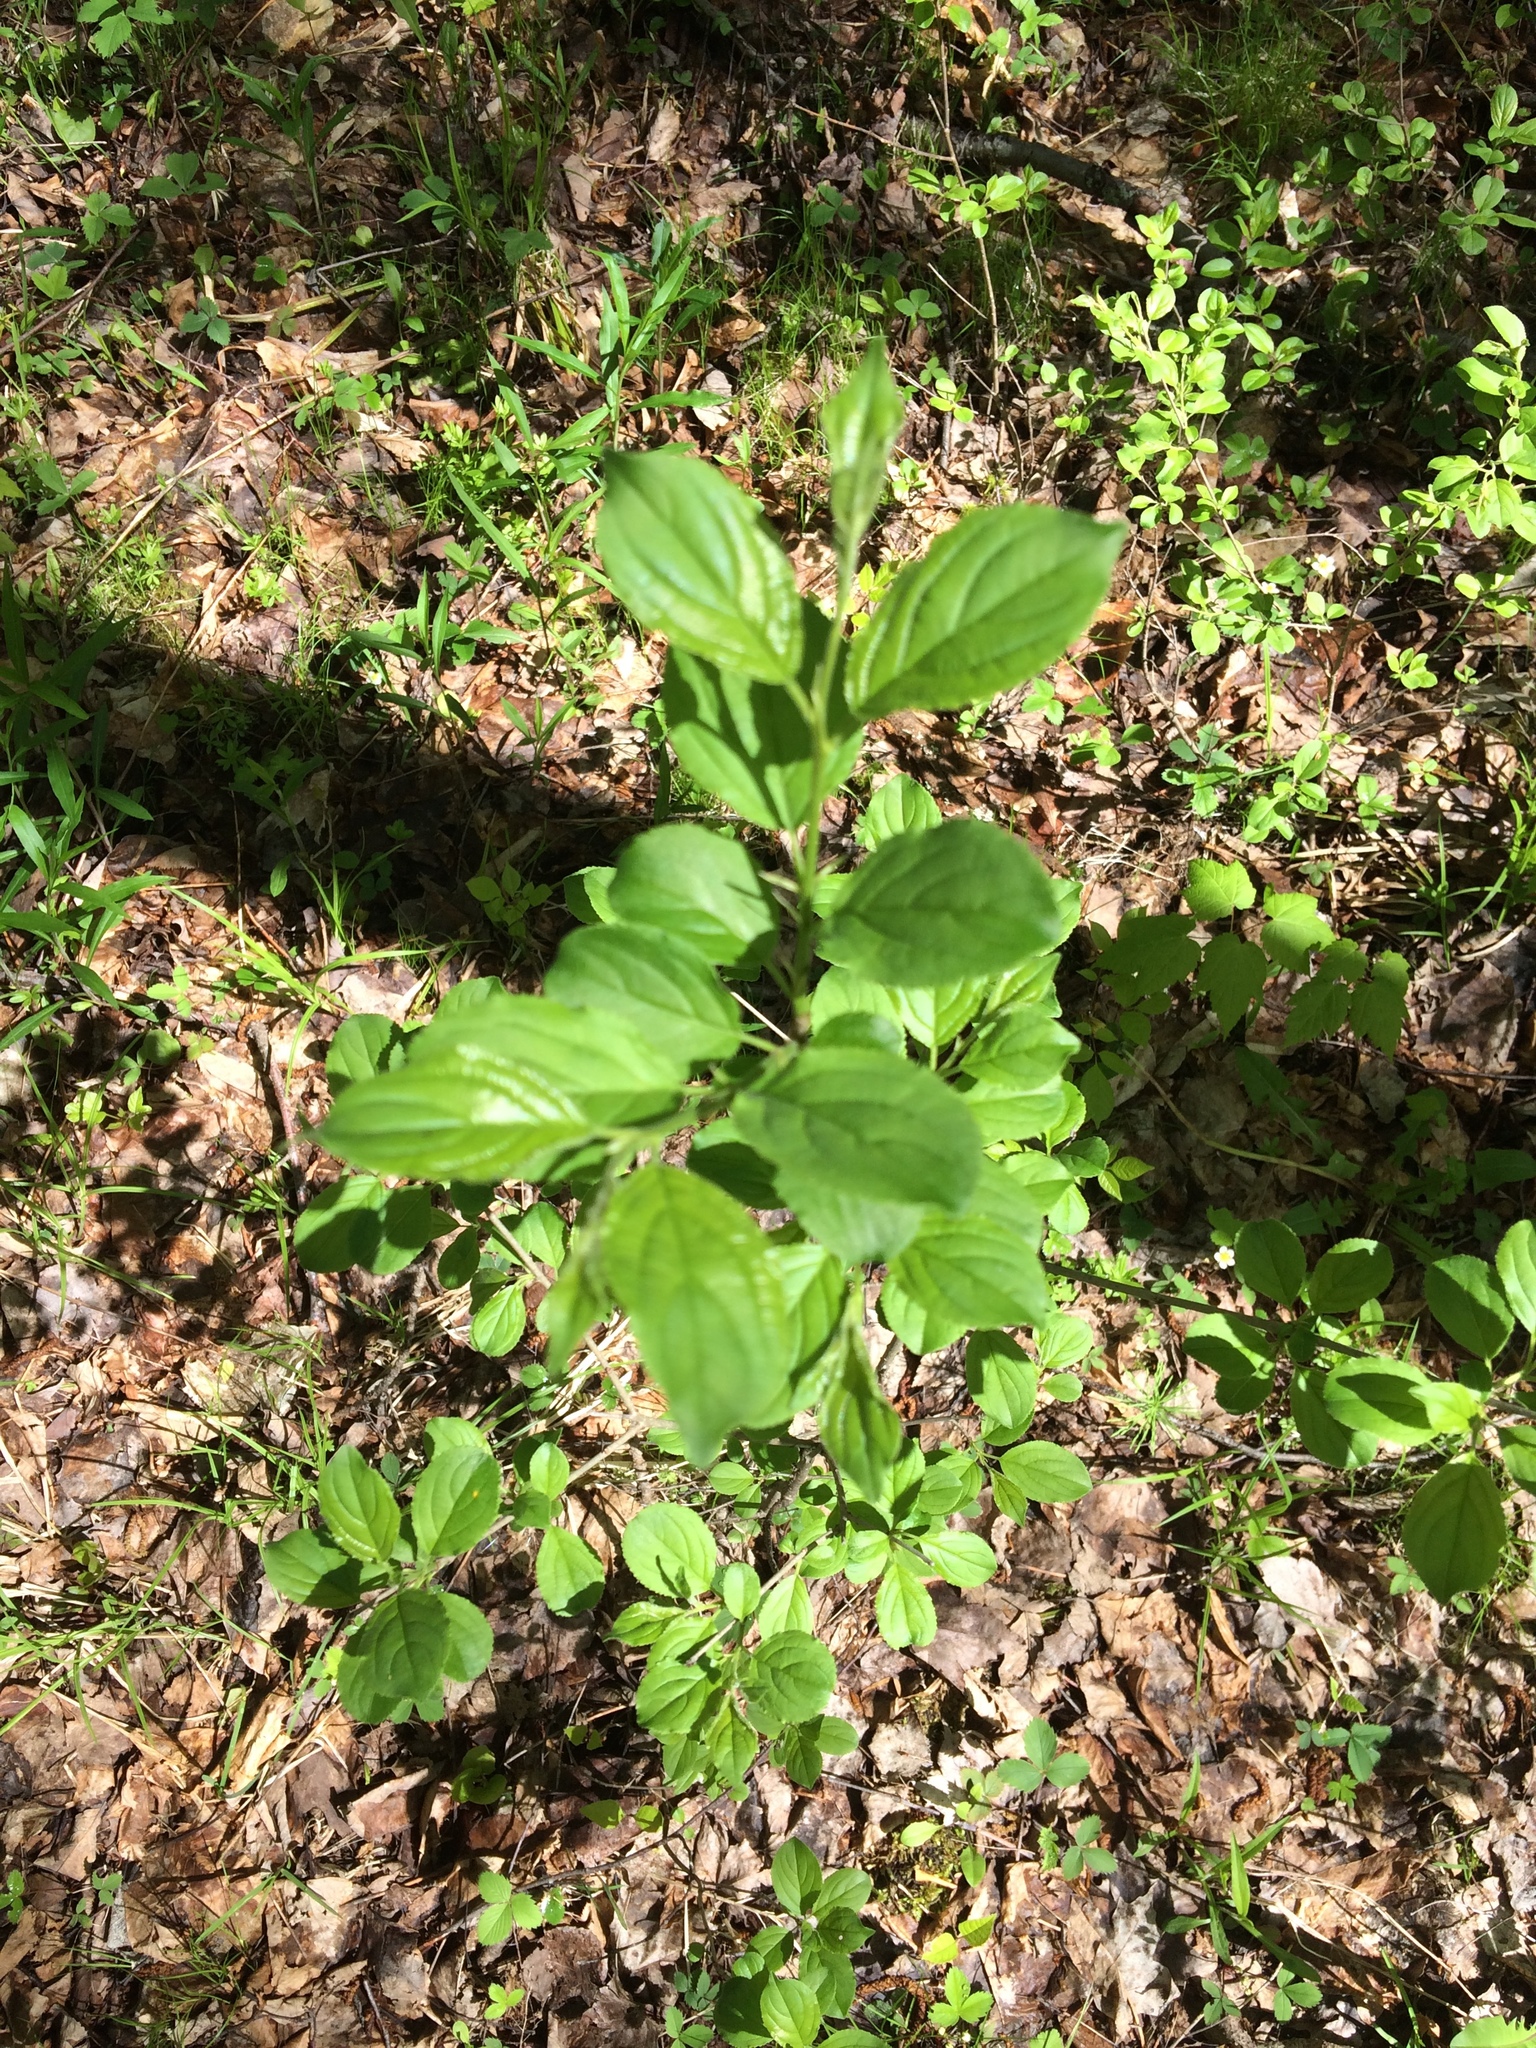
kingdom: Plantae
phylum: Tracheophyta
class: Magnoliopsida
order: Rosales
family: Rhamnaceae
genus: Rhamnus
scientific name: Rhamnus cathartica
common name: Common buckthorn
